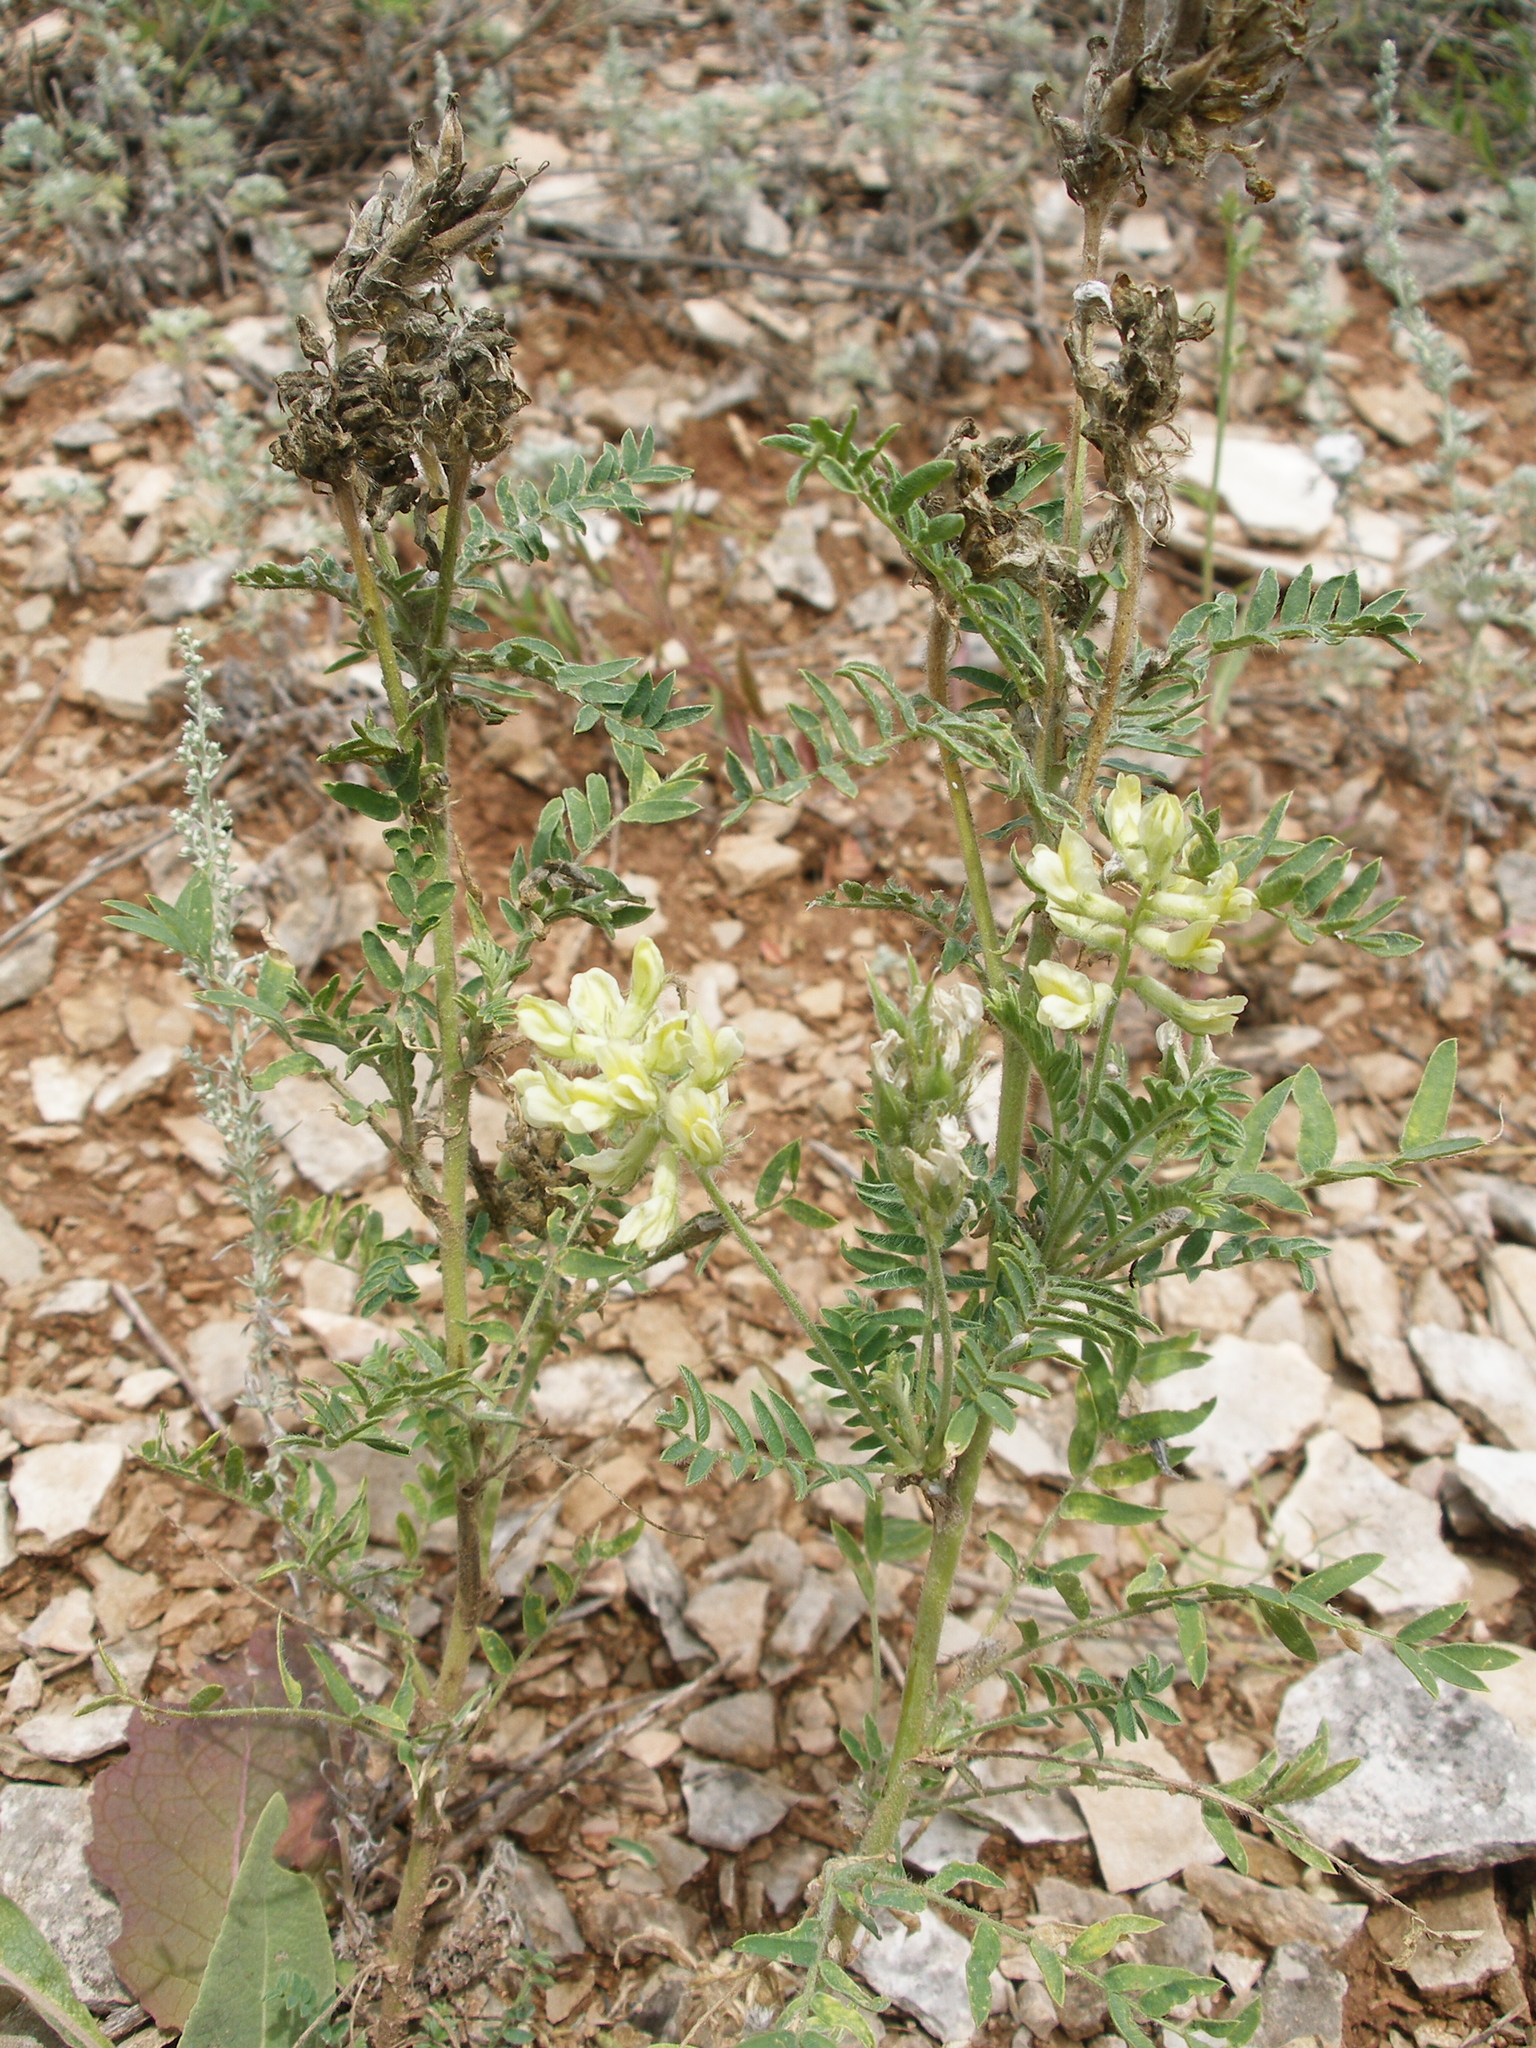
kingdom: Plantae
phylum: Tracheophyta
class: Magnoliopsida
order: Fabales
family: Fabaceae
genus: Oxytropis
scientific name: Oxytropis pilosa
